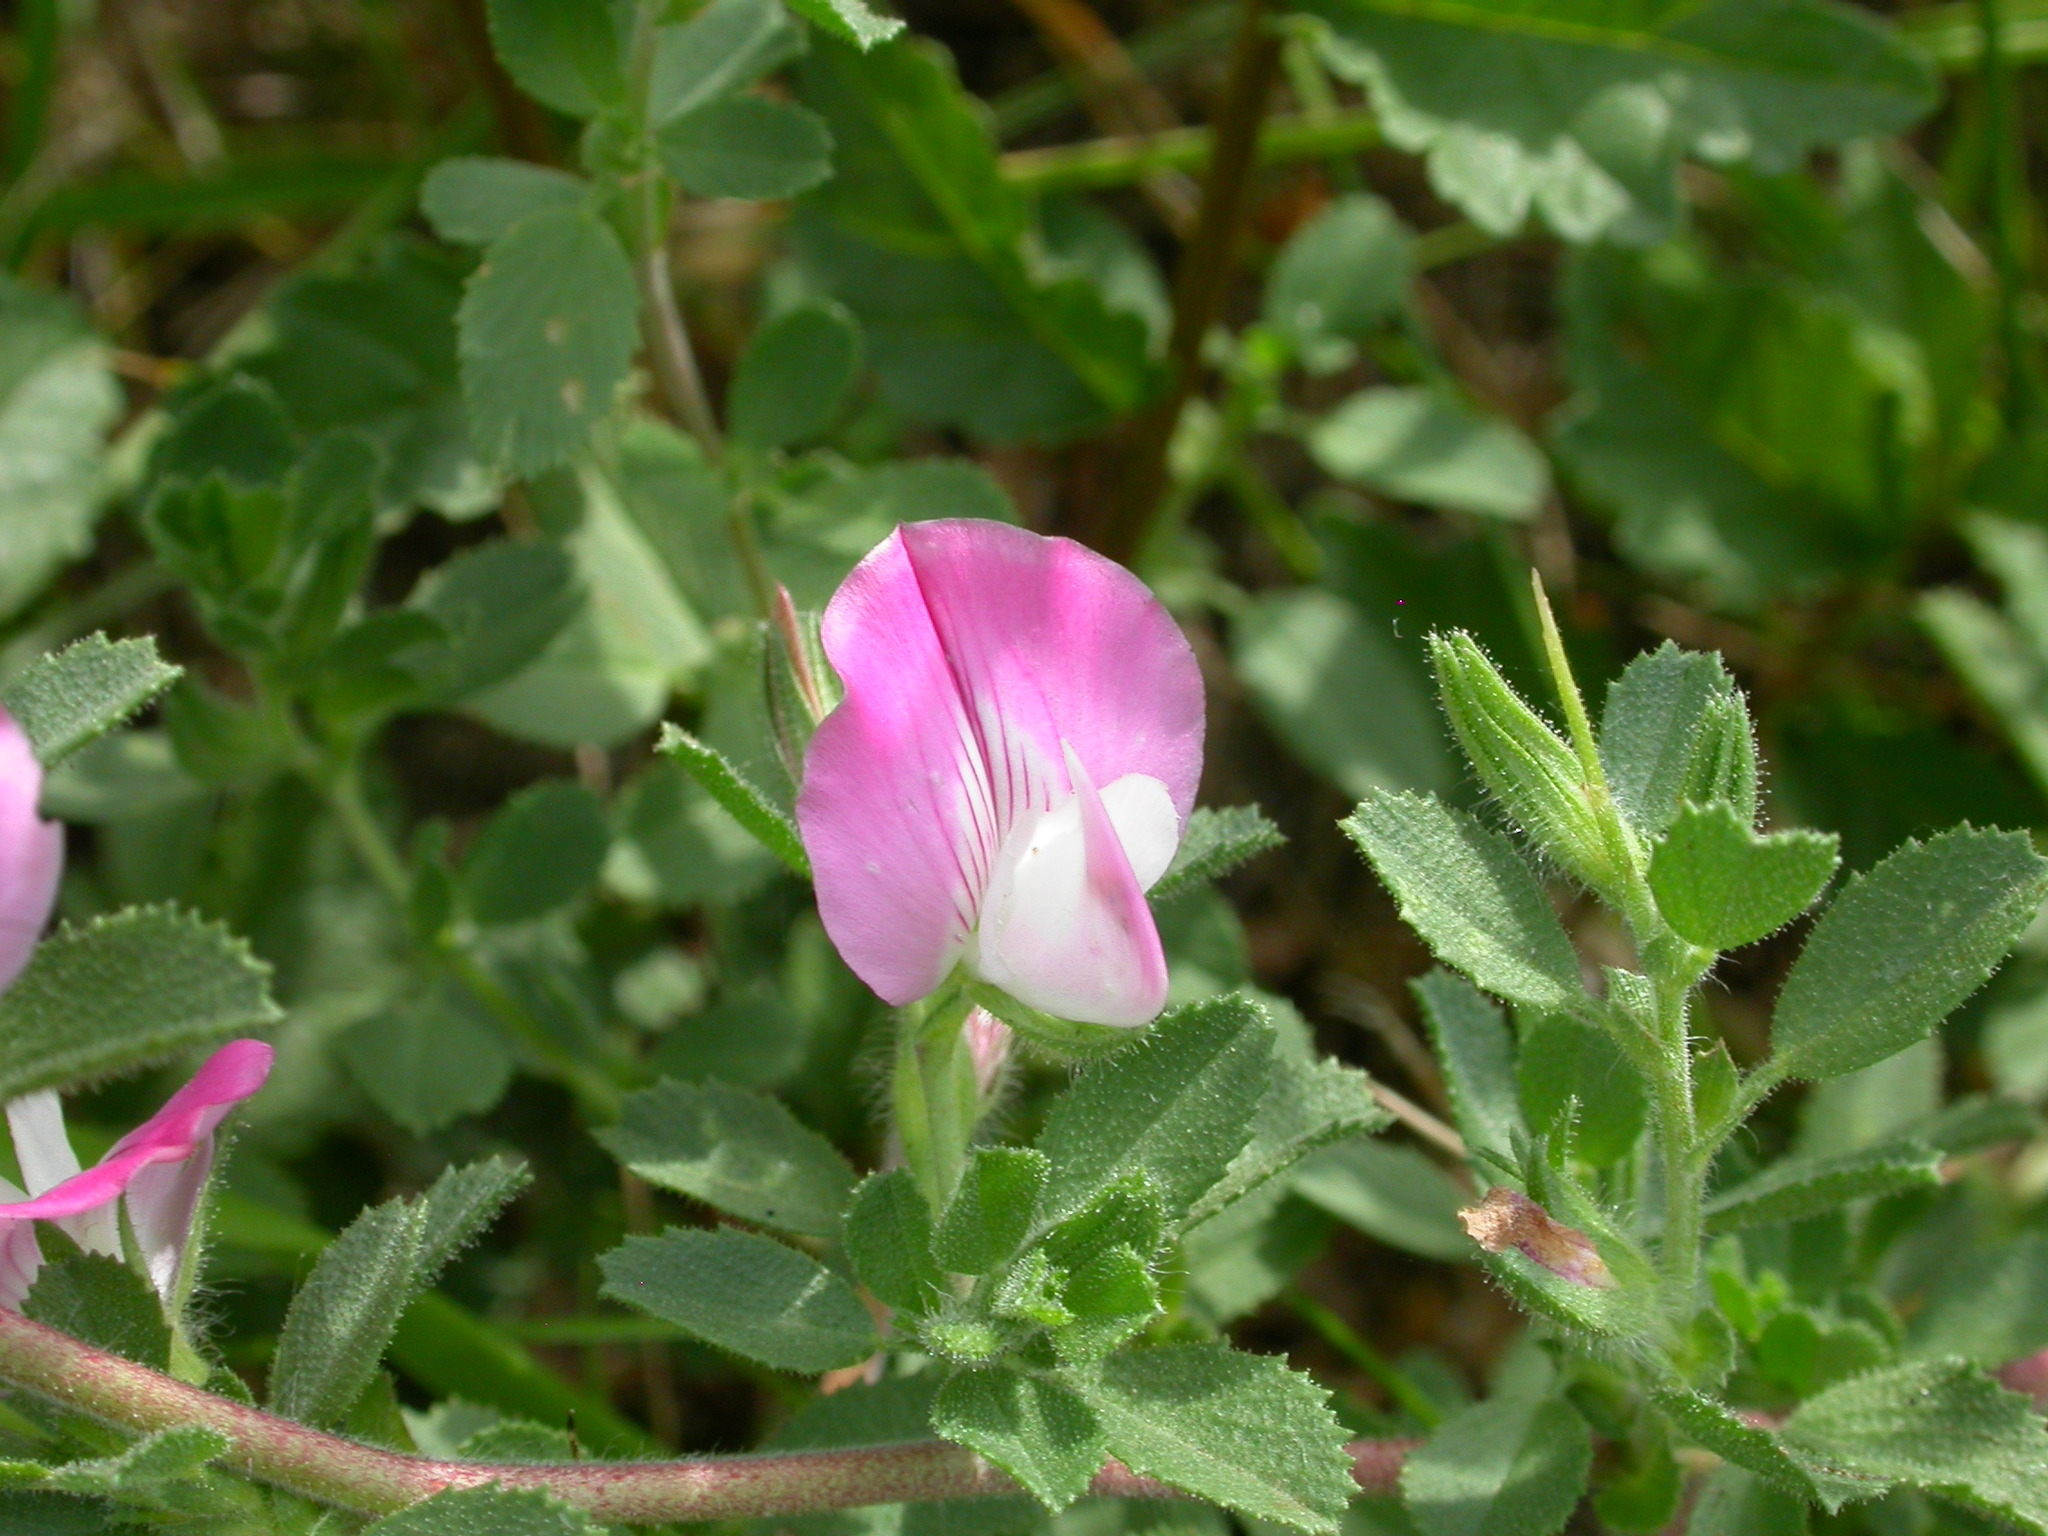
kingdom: Plantae
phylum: Tracheophyta
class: Magnoliopsida
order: Fabales
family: Fabaceae
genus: Ononis
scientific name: Ononis spinosa
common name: Spiny restharrow
